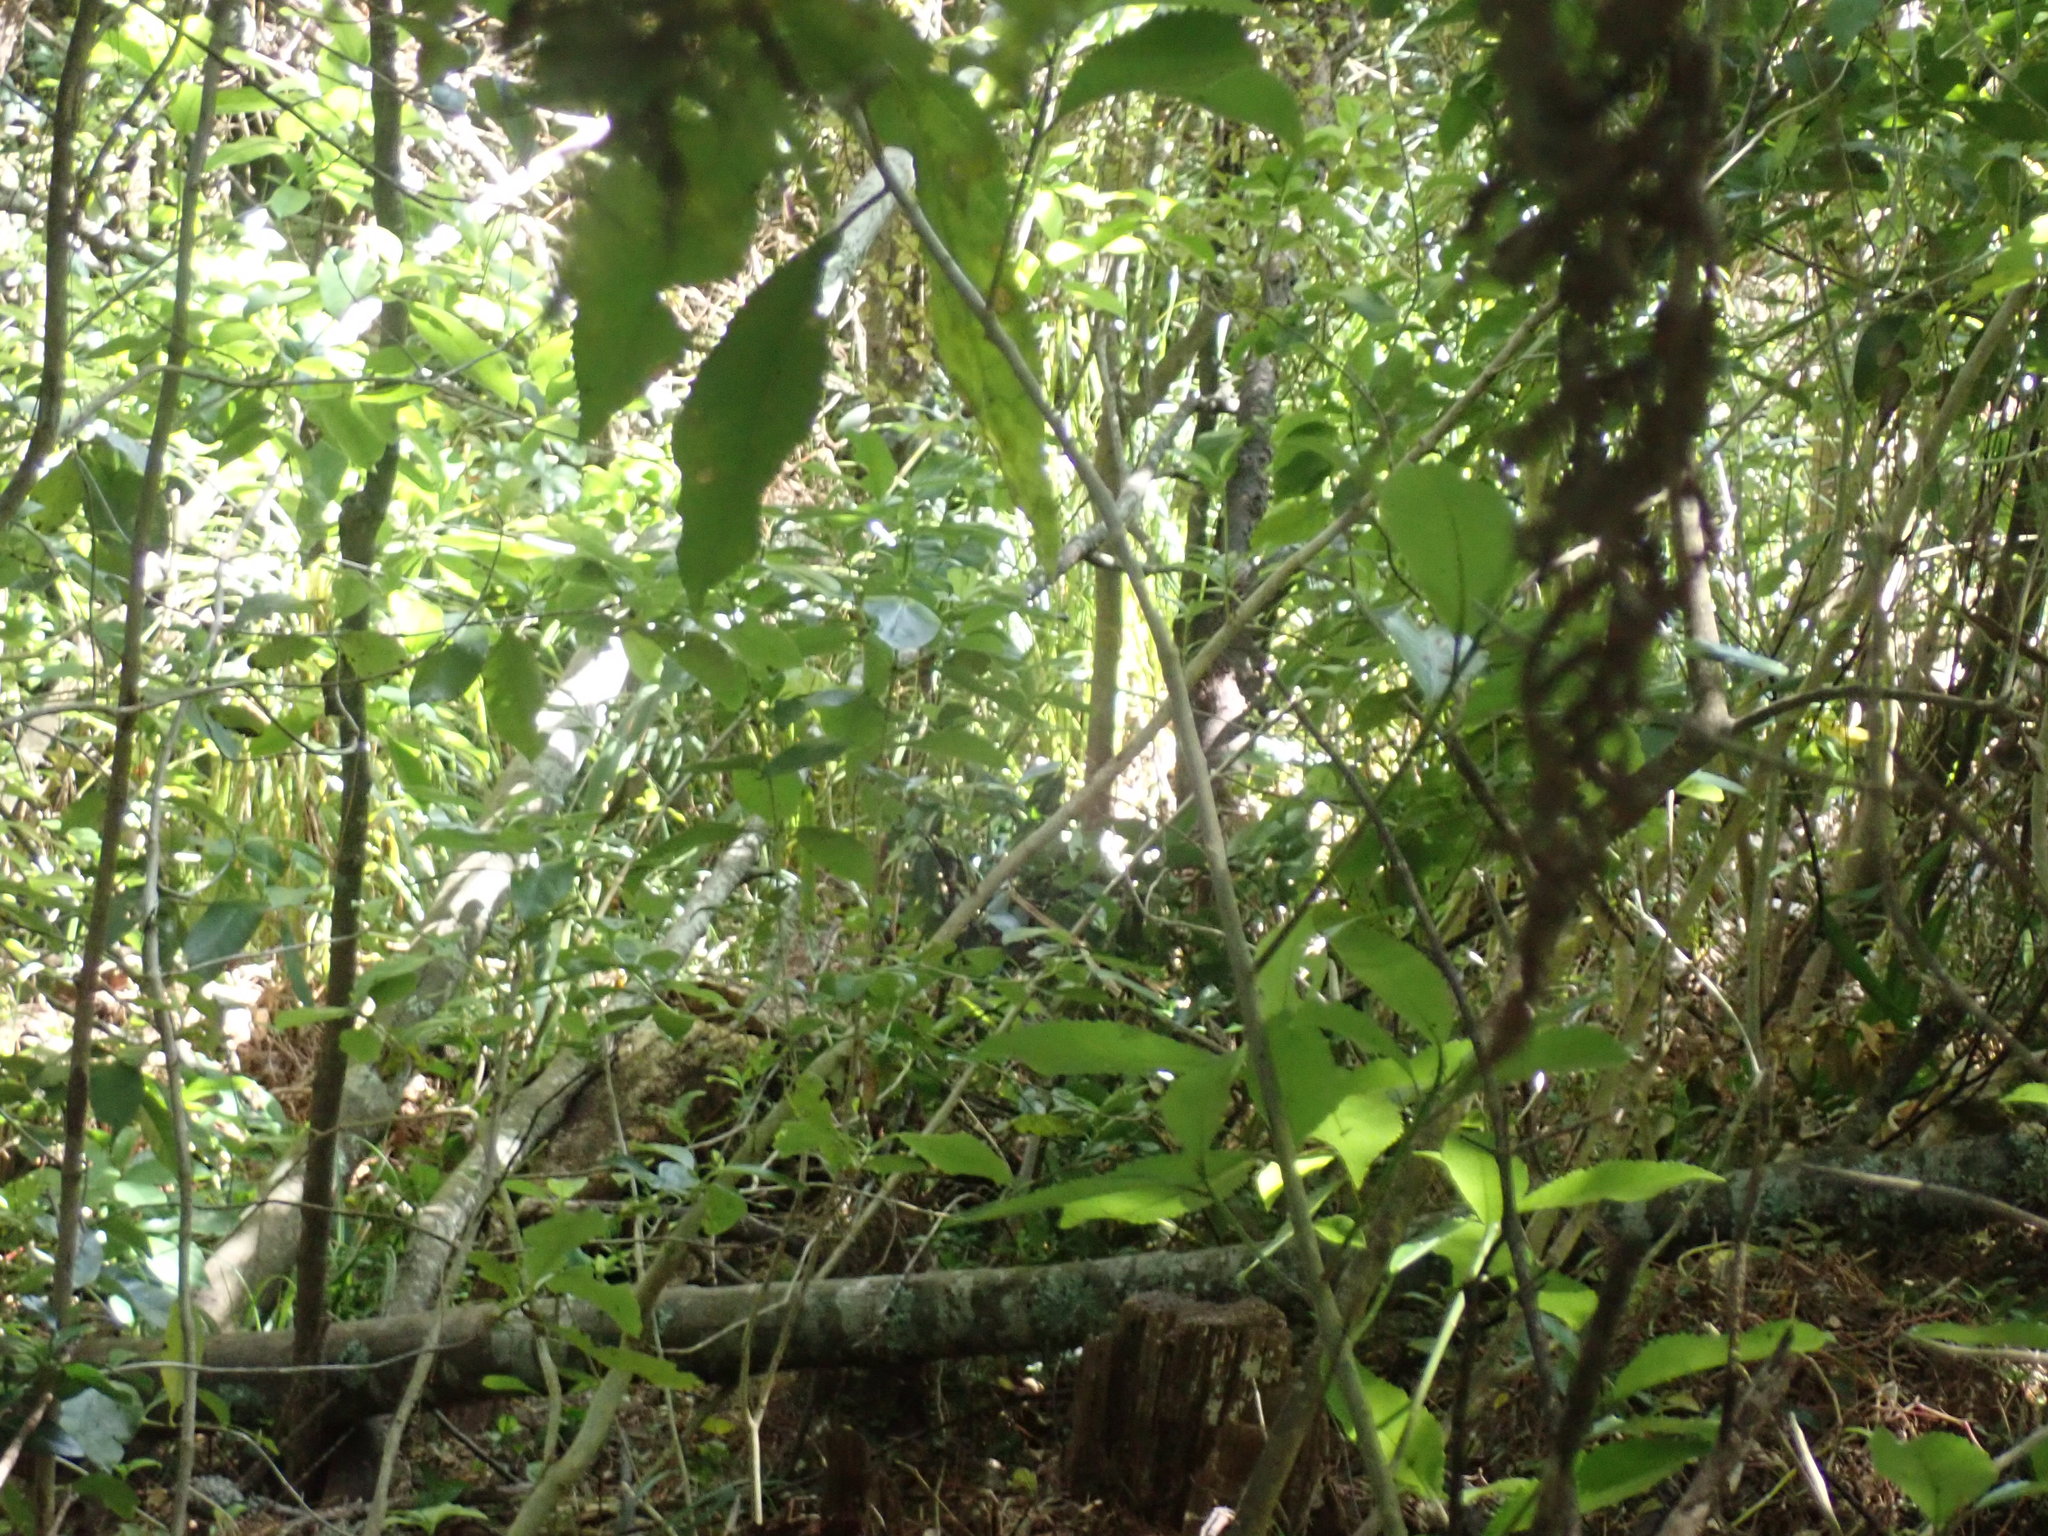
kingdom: Plantae
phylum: Tracheophyta
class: Magnoliopsida
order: Malpighiales
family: Violaceae
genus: Melicytus
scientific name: Melicytus ramiflorus
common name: Mahoe
